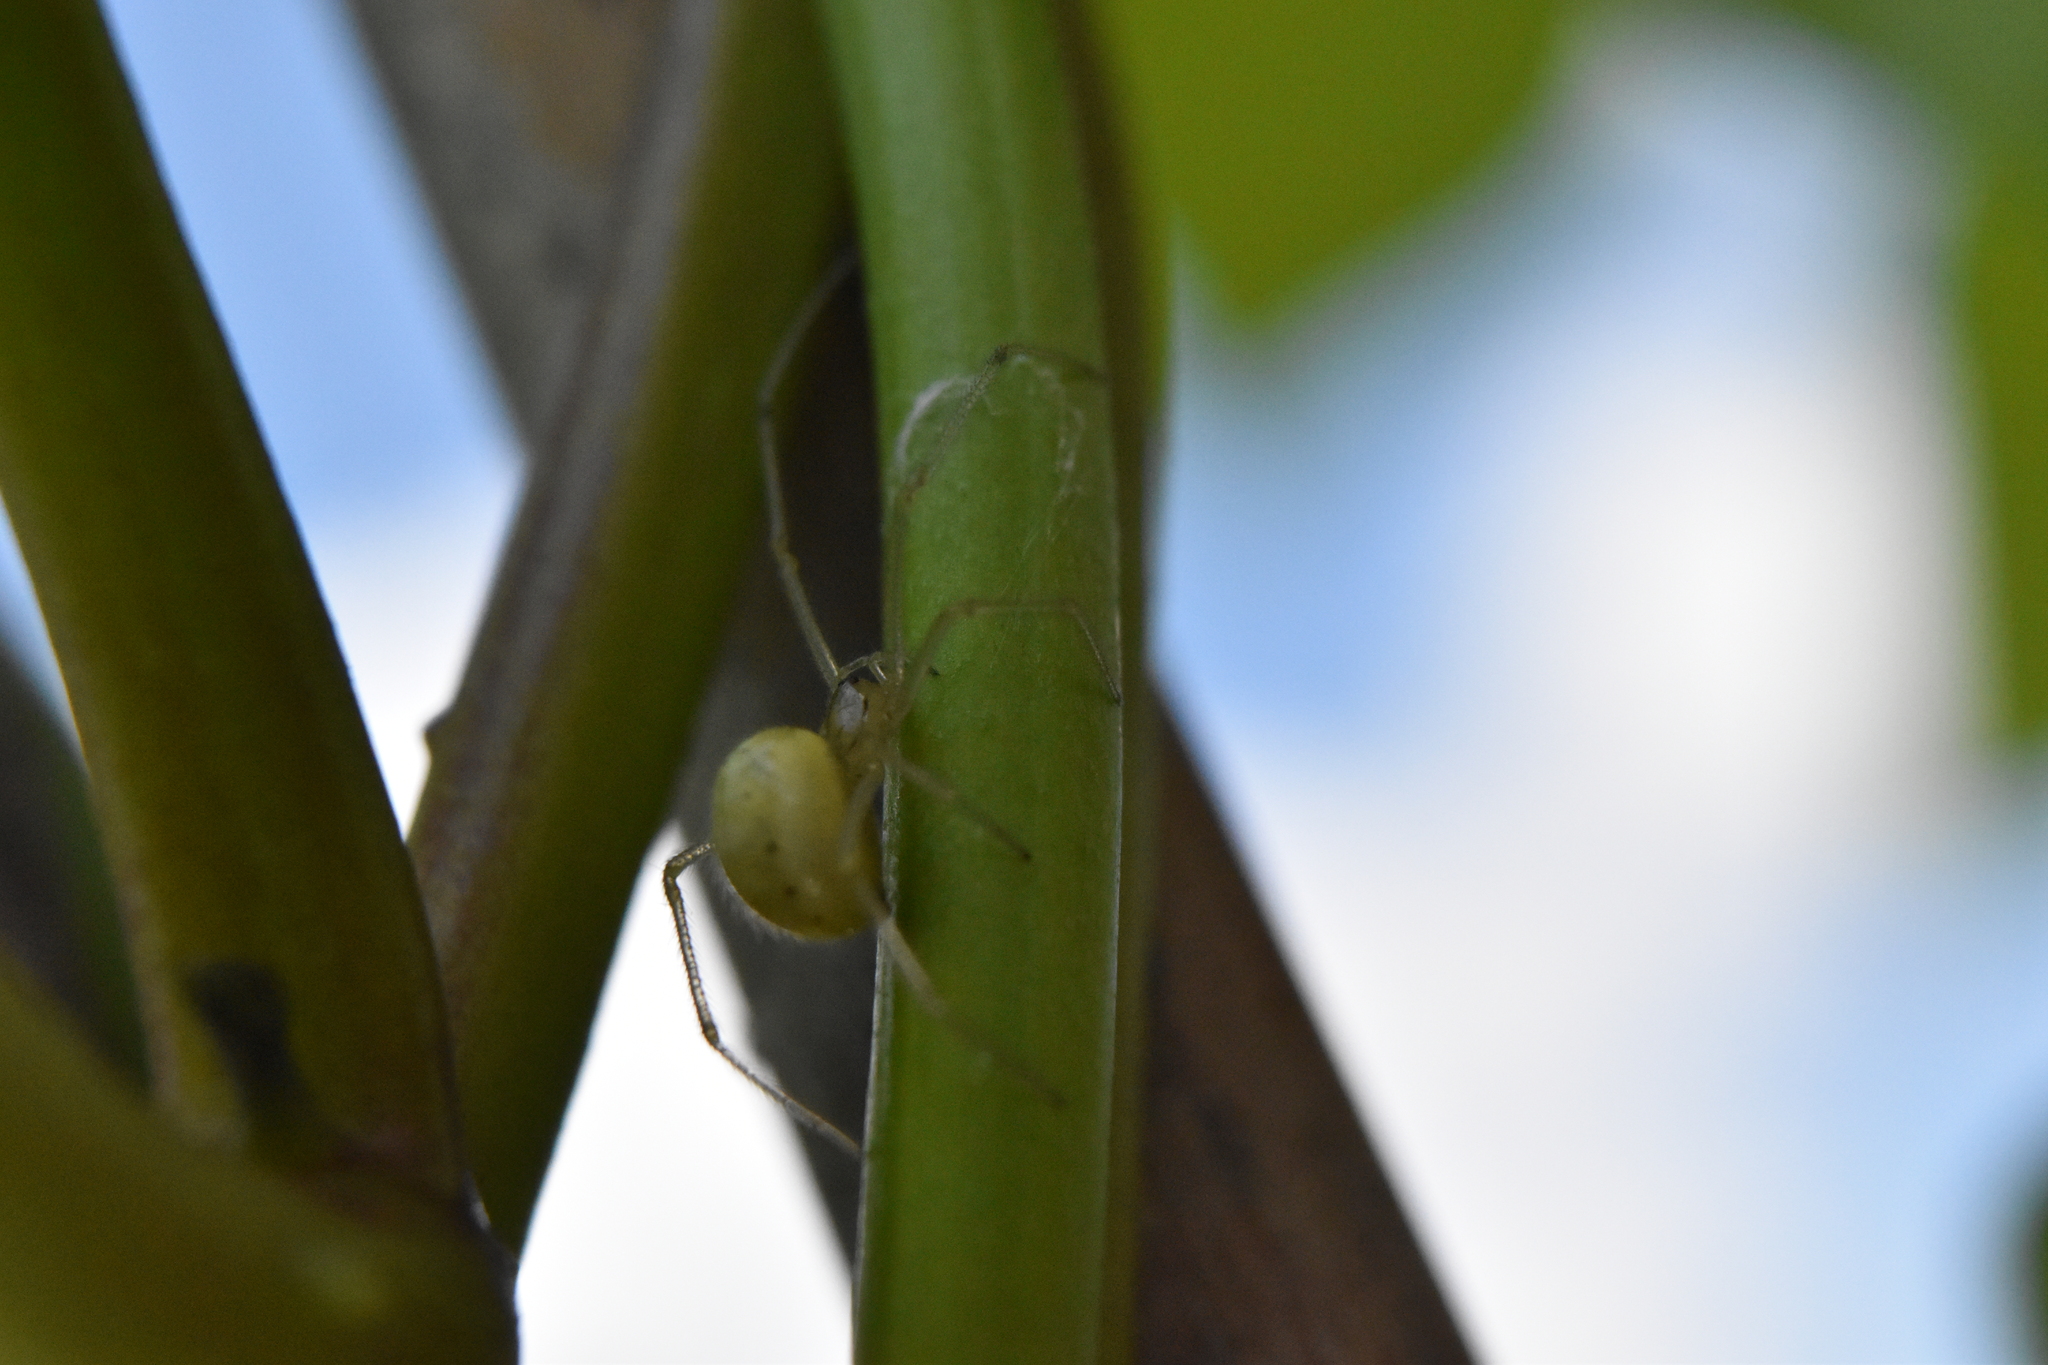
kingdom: Animalia
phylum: Arthropoda
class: Arachnida
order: Araneae
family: Theridiidae
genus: Enoplognatha
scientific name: Enoplognatha
